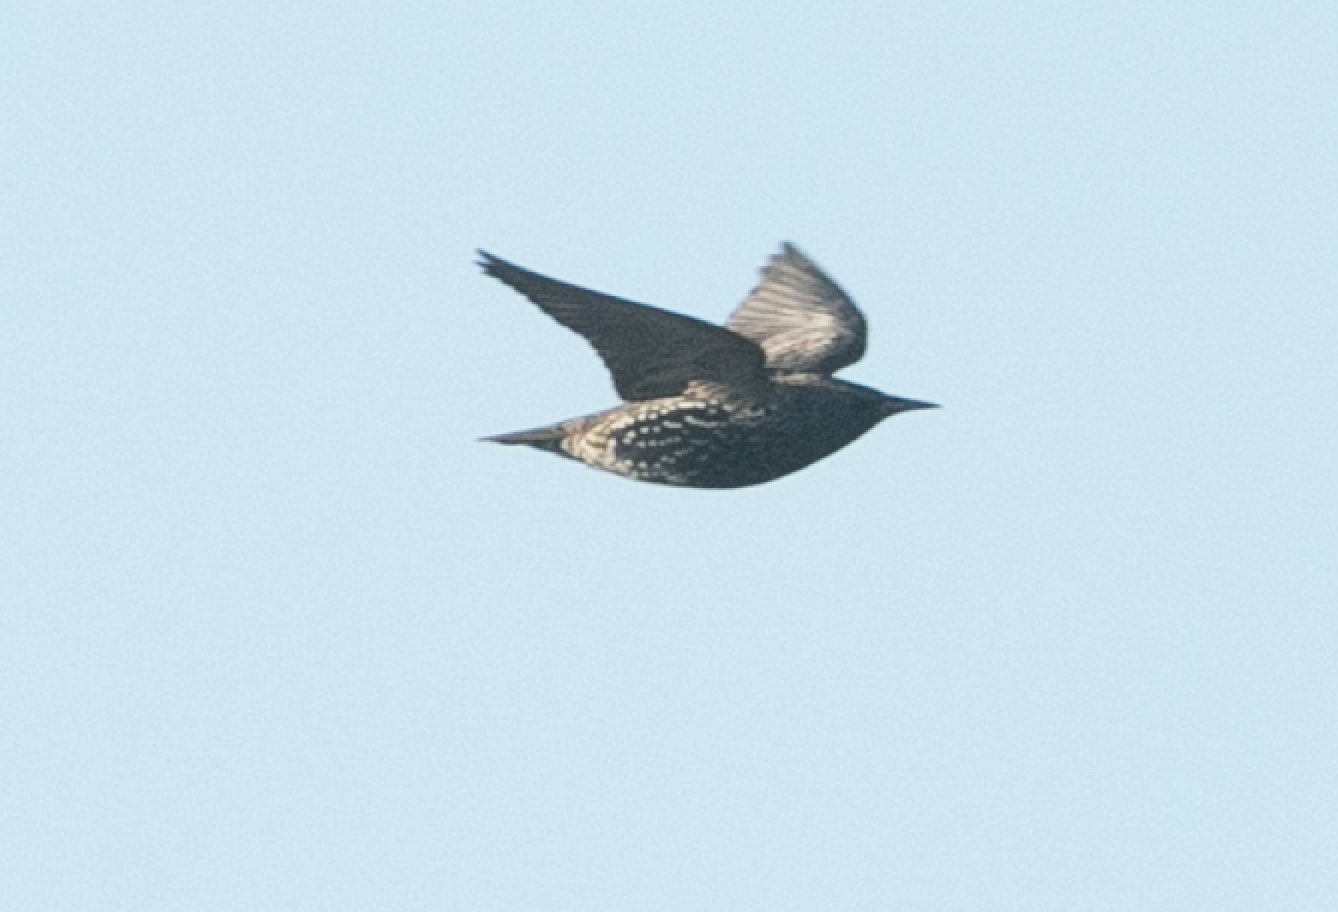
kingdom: Animalia
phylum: Chordata
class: Aves
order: Passeriformes
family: Sturnidae
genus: Sturnus
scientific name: Sturnus vulgaris
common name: Common starling
